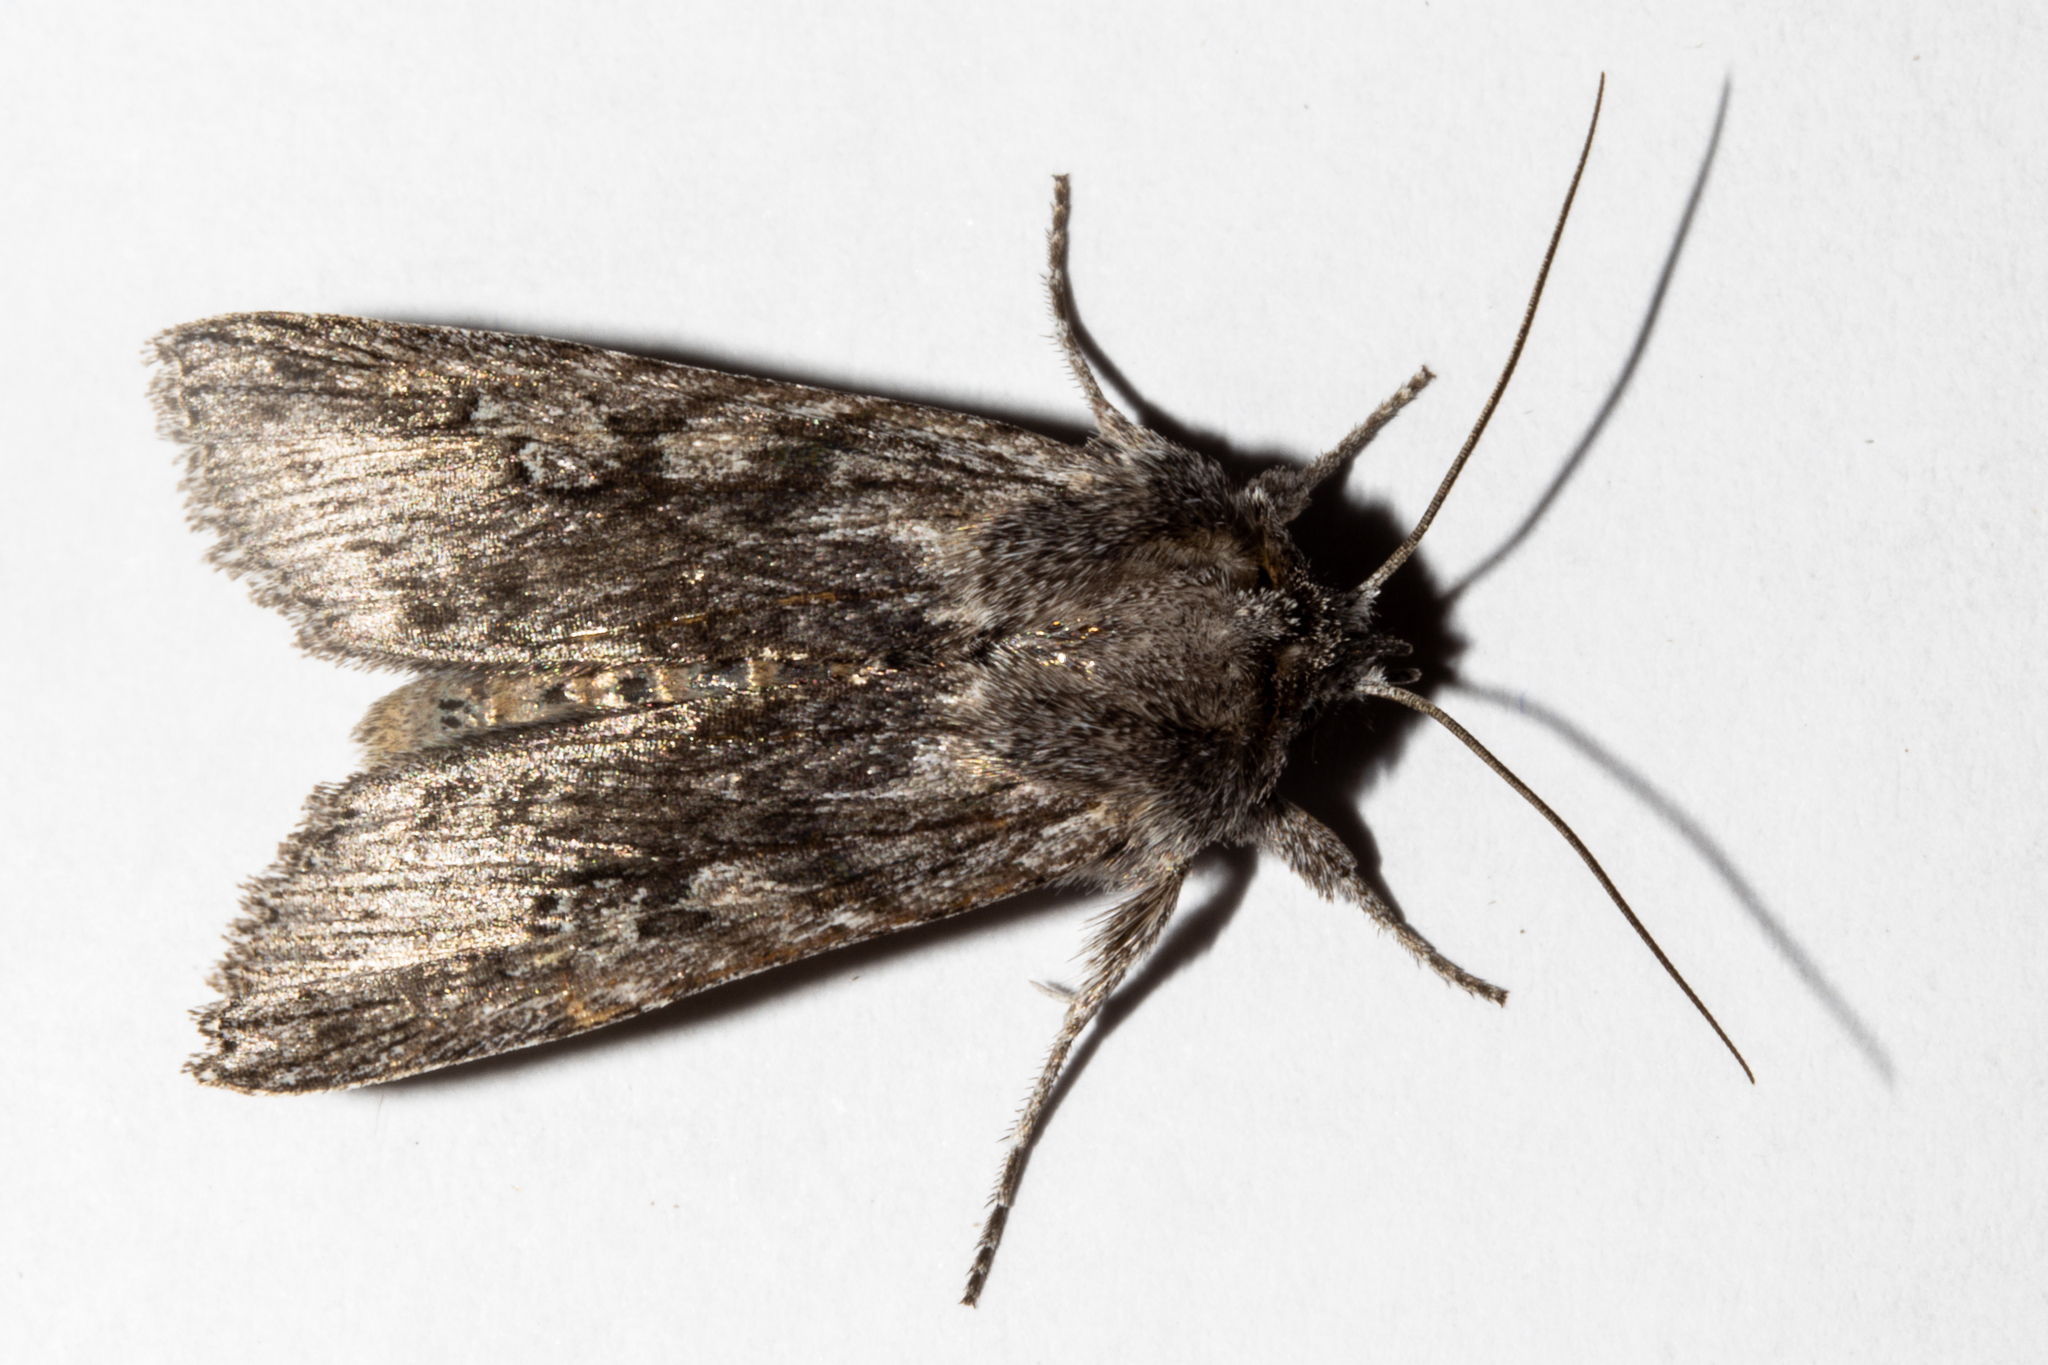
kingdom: Animalia
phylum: Arthropoda
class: Insecta
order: Lepidoptera
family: Noctuidae
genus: Physetica
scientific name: Physetica phricias
